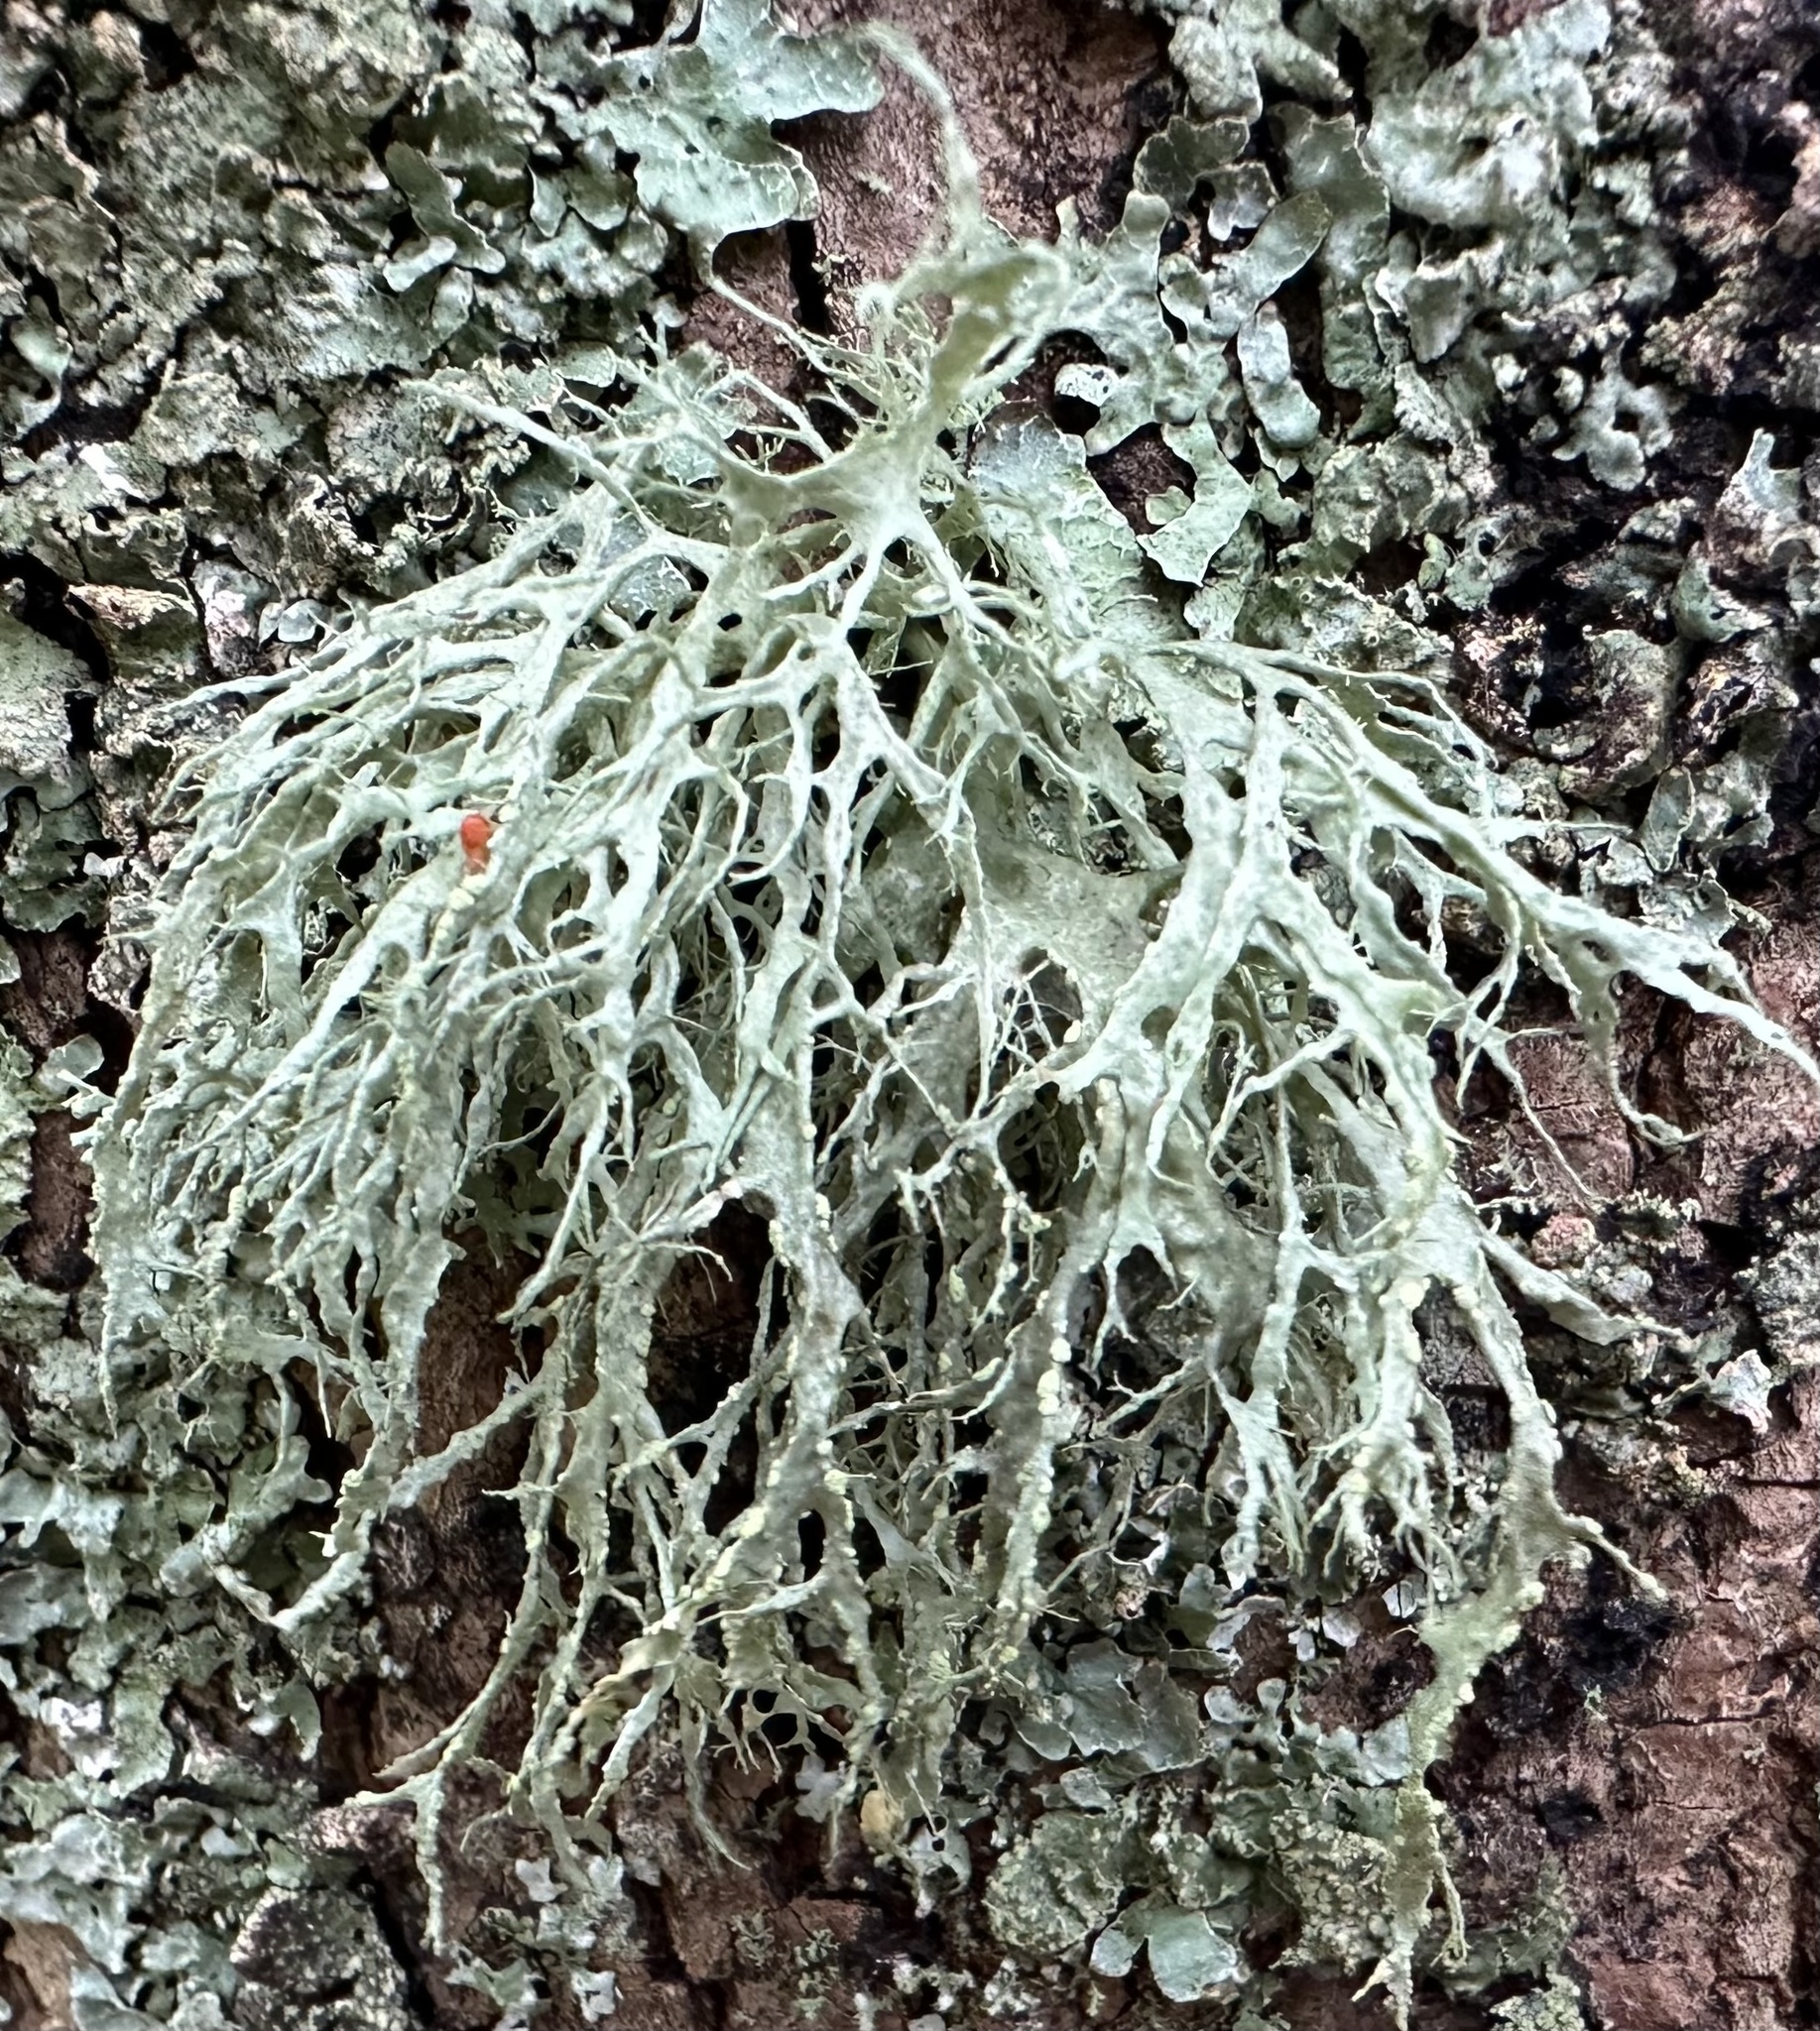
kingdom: Fungi
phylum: Ascomycota
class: Lecanoromycetes
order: Lecanorales
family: Ramalinaceae
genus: Ramalina
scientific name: Ramalina farinacea
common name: Farinose cartilage lichen
